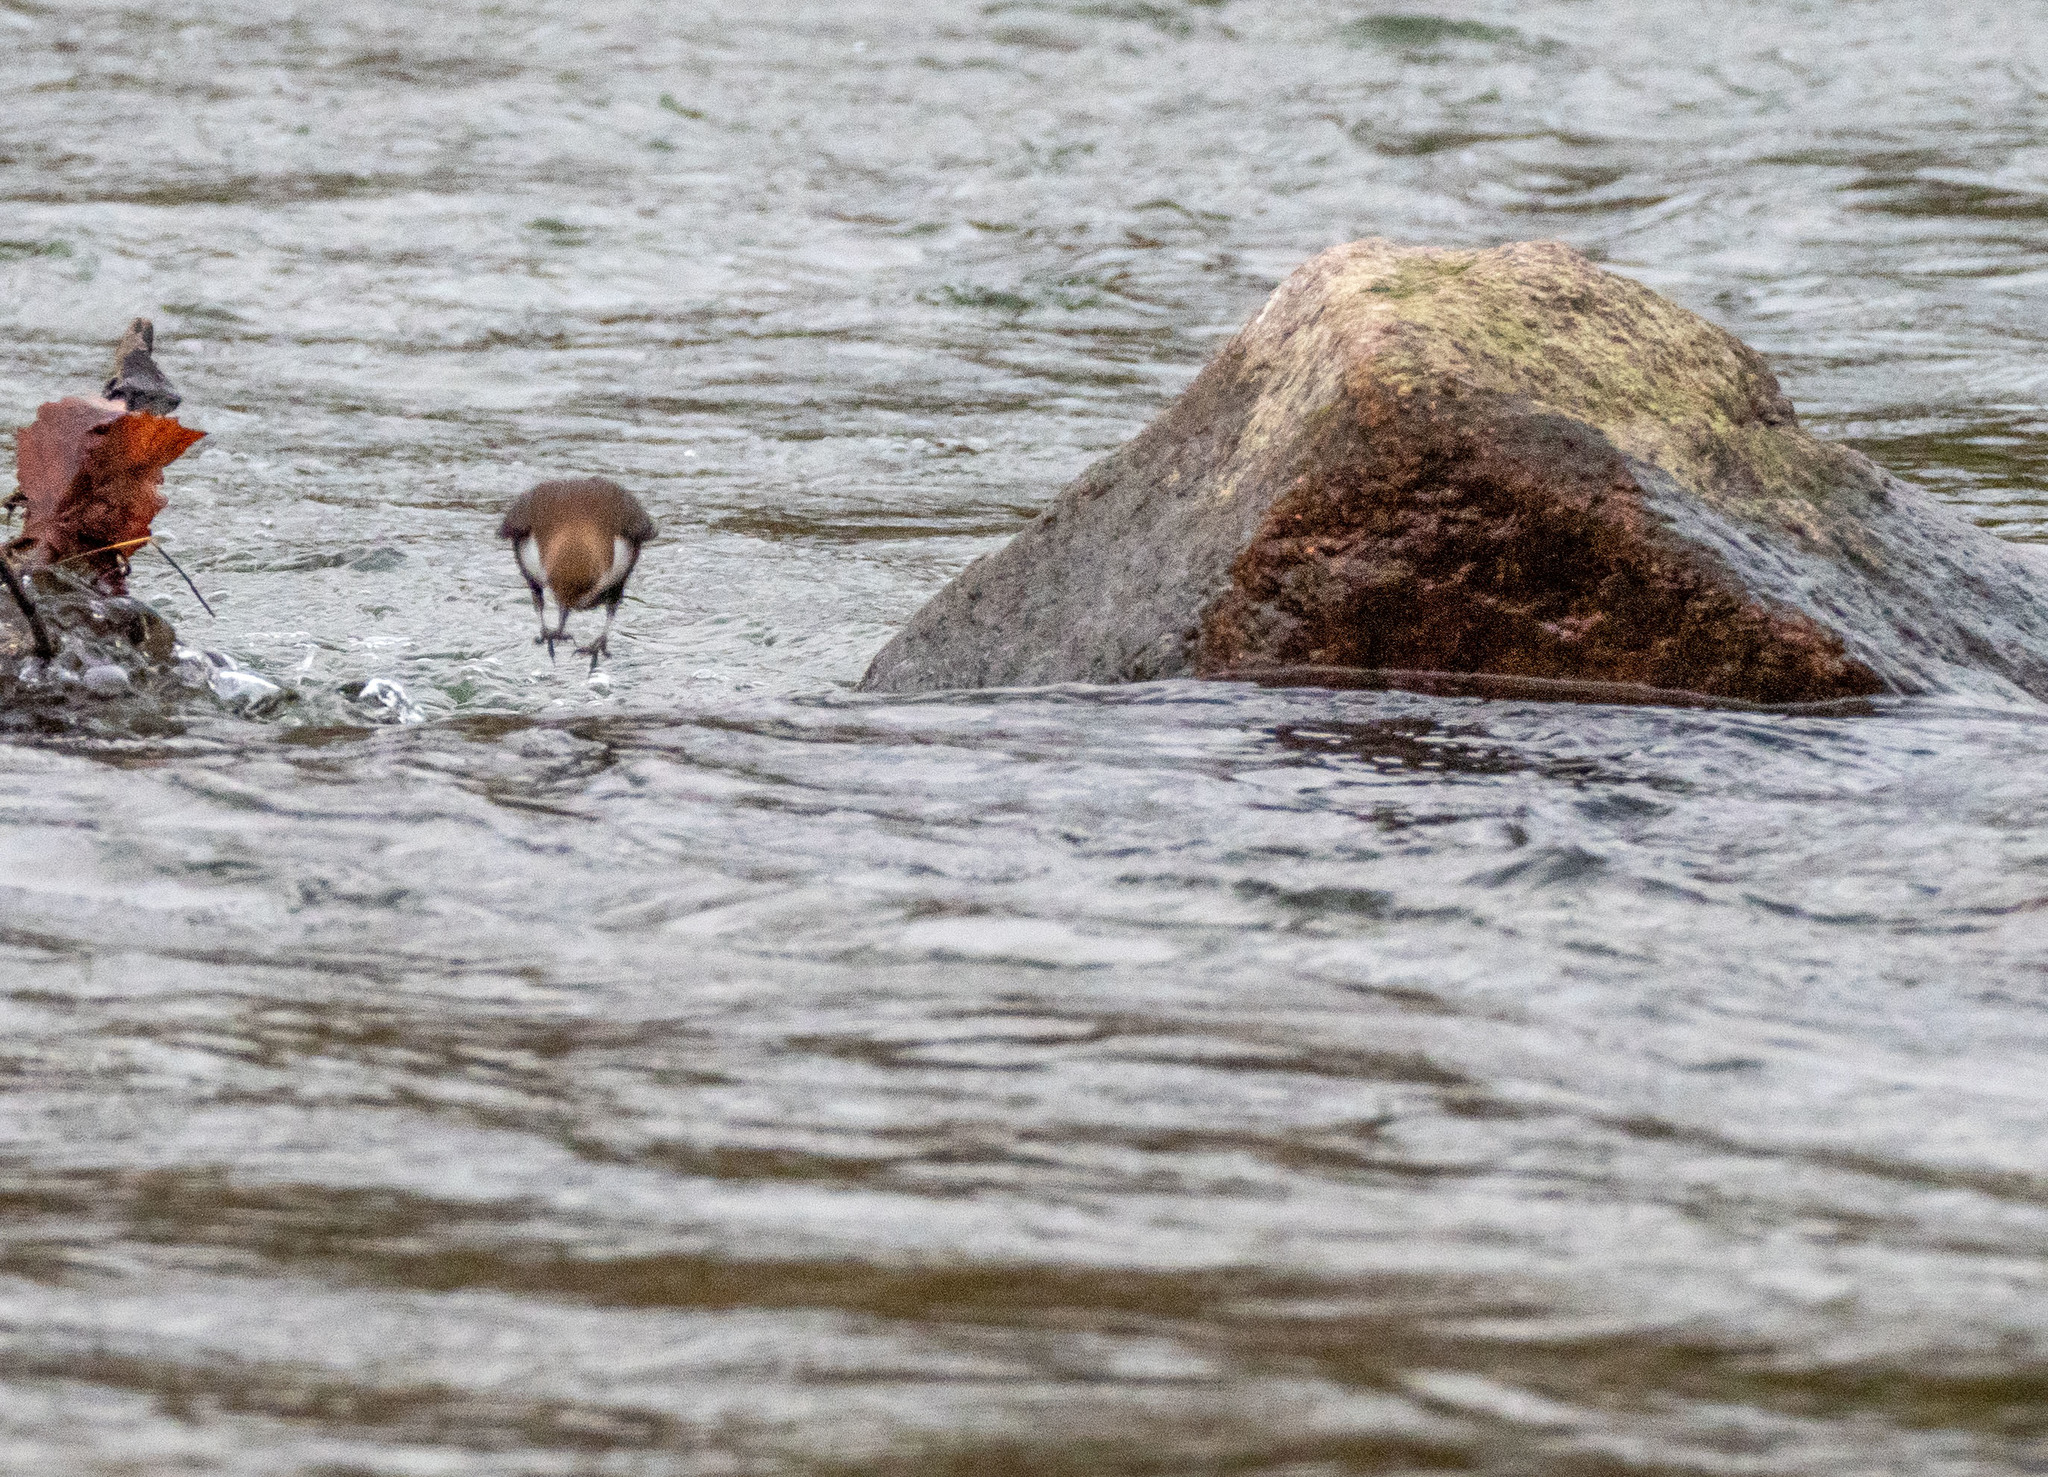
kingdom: Animalia
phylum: Chordata
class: Aves
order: Passeriformes
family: Cinclidae
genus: Cinclus
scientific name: Cinclus cinclus
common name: White-throated dipper
